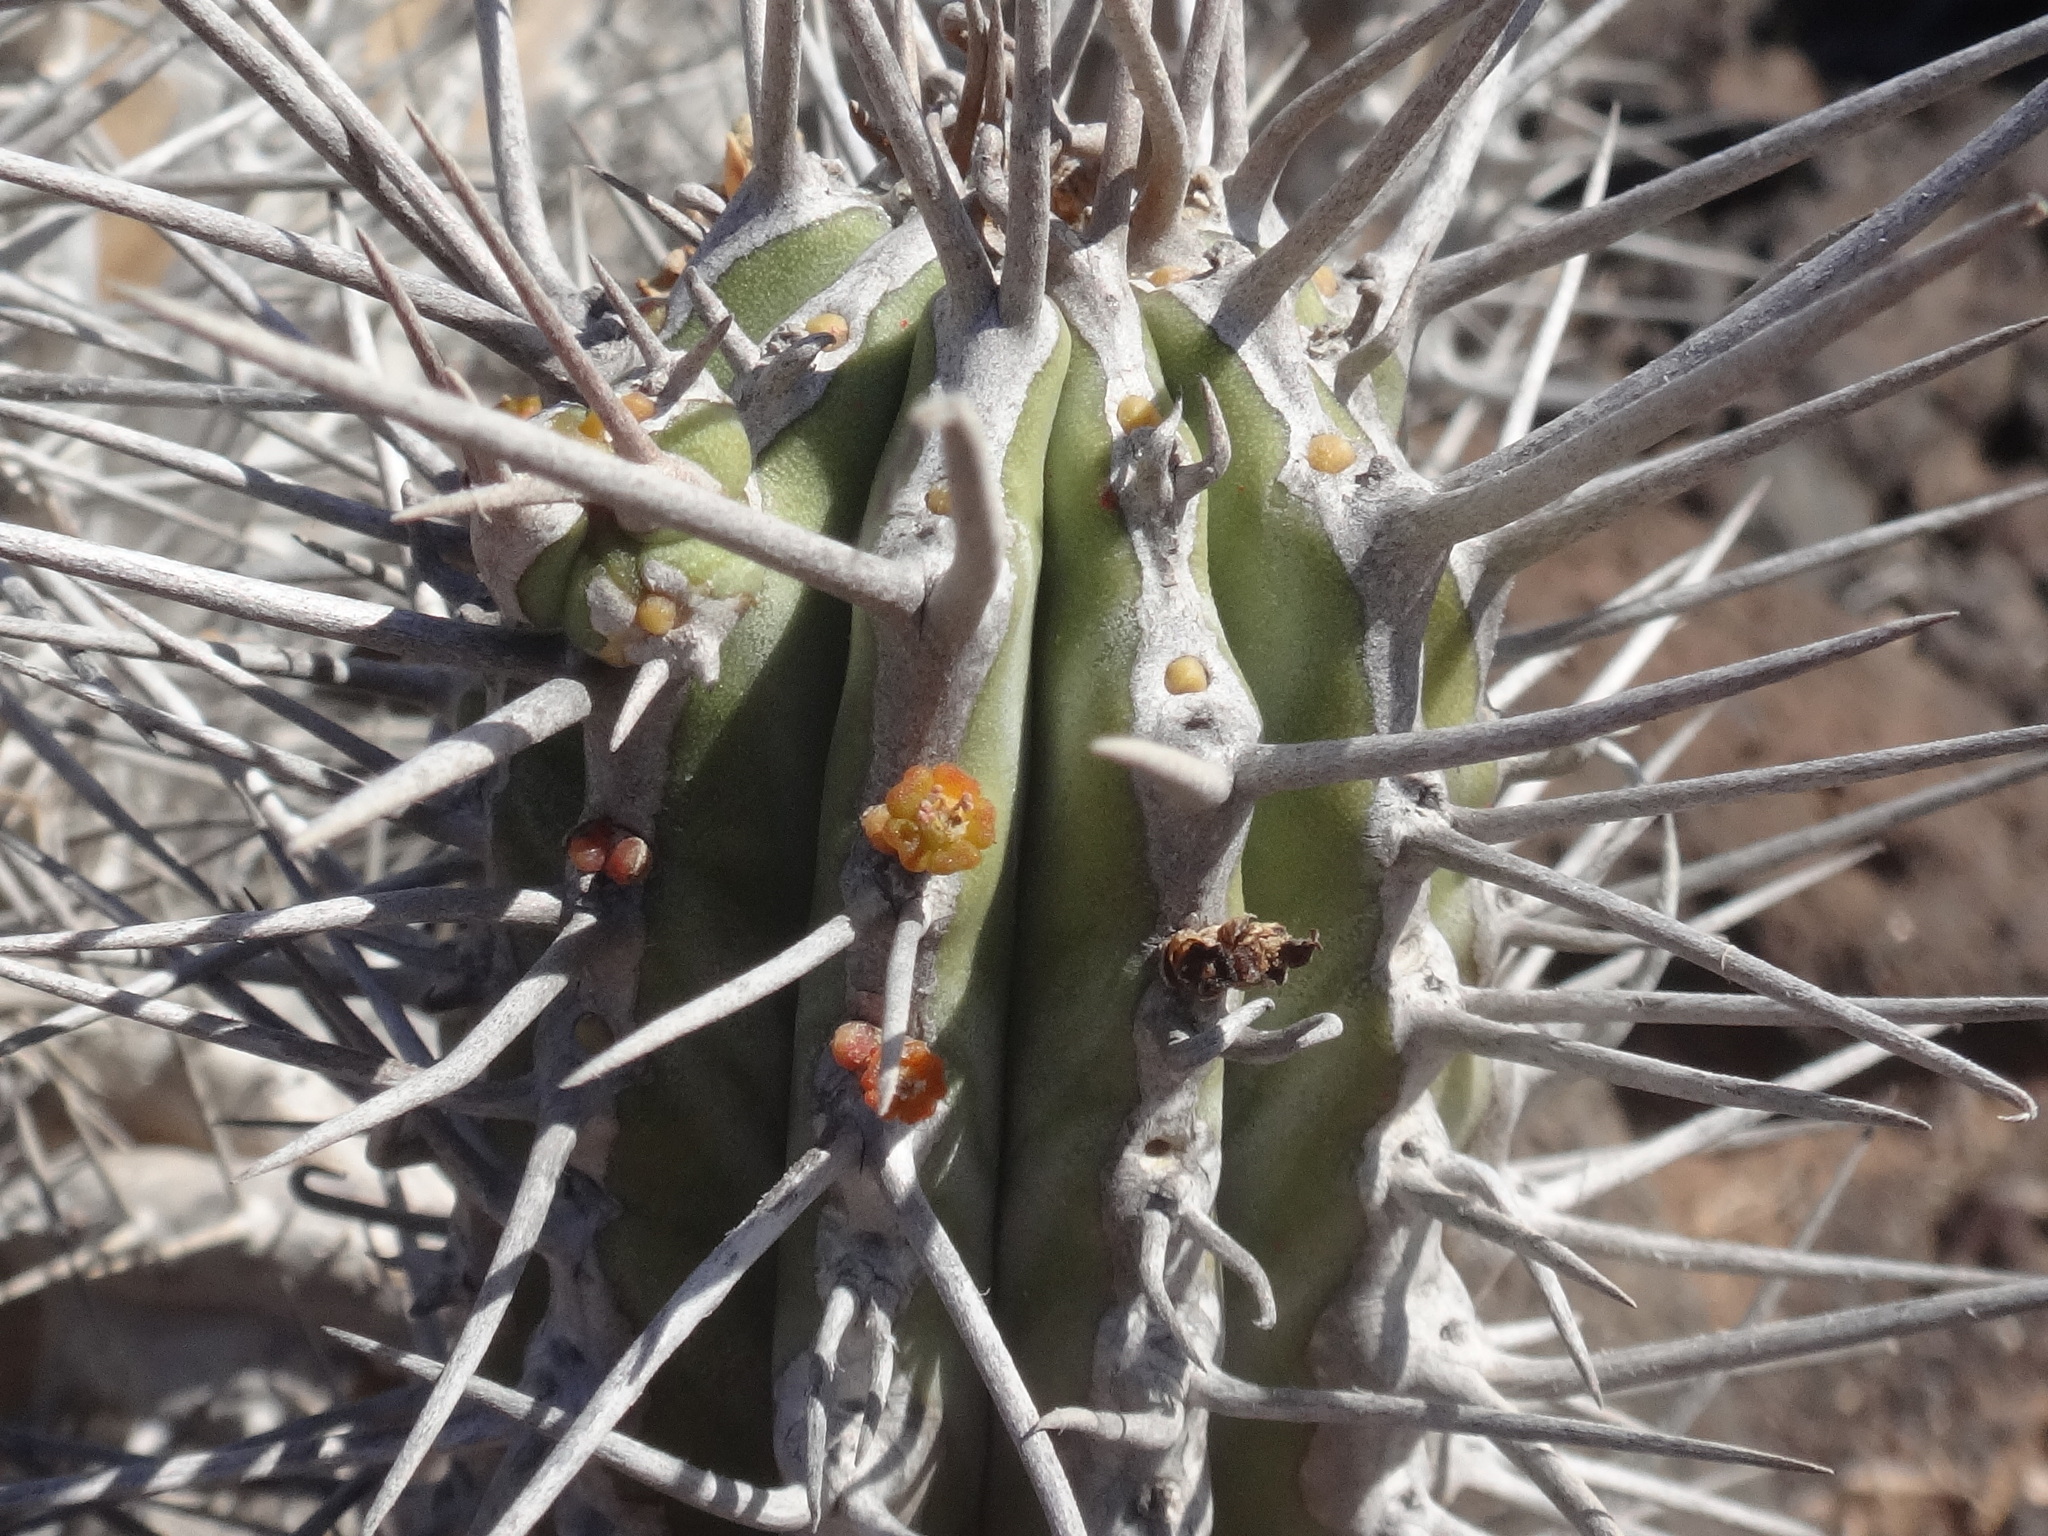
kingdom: Plantae
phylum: Tracheophyta
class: Magnoliopsida
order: Malpighiales
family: Euphorbiaceae
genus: Euphorbia
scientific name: Euphorbia handiensis
